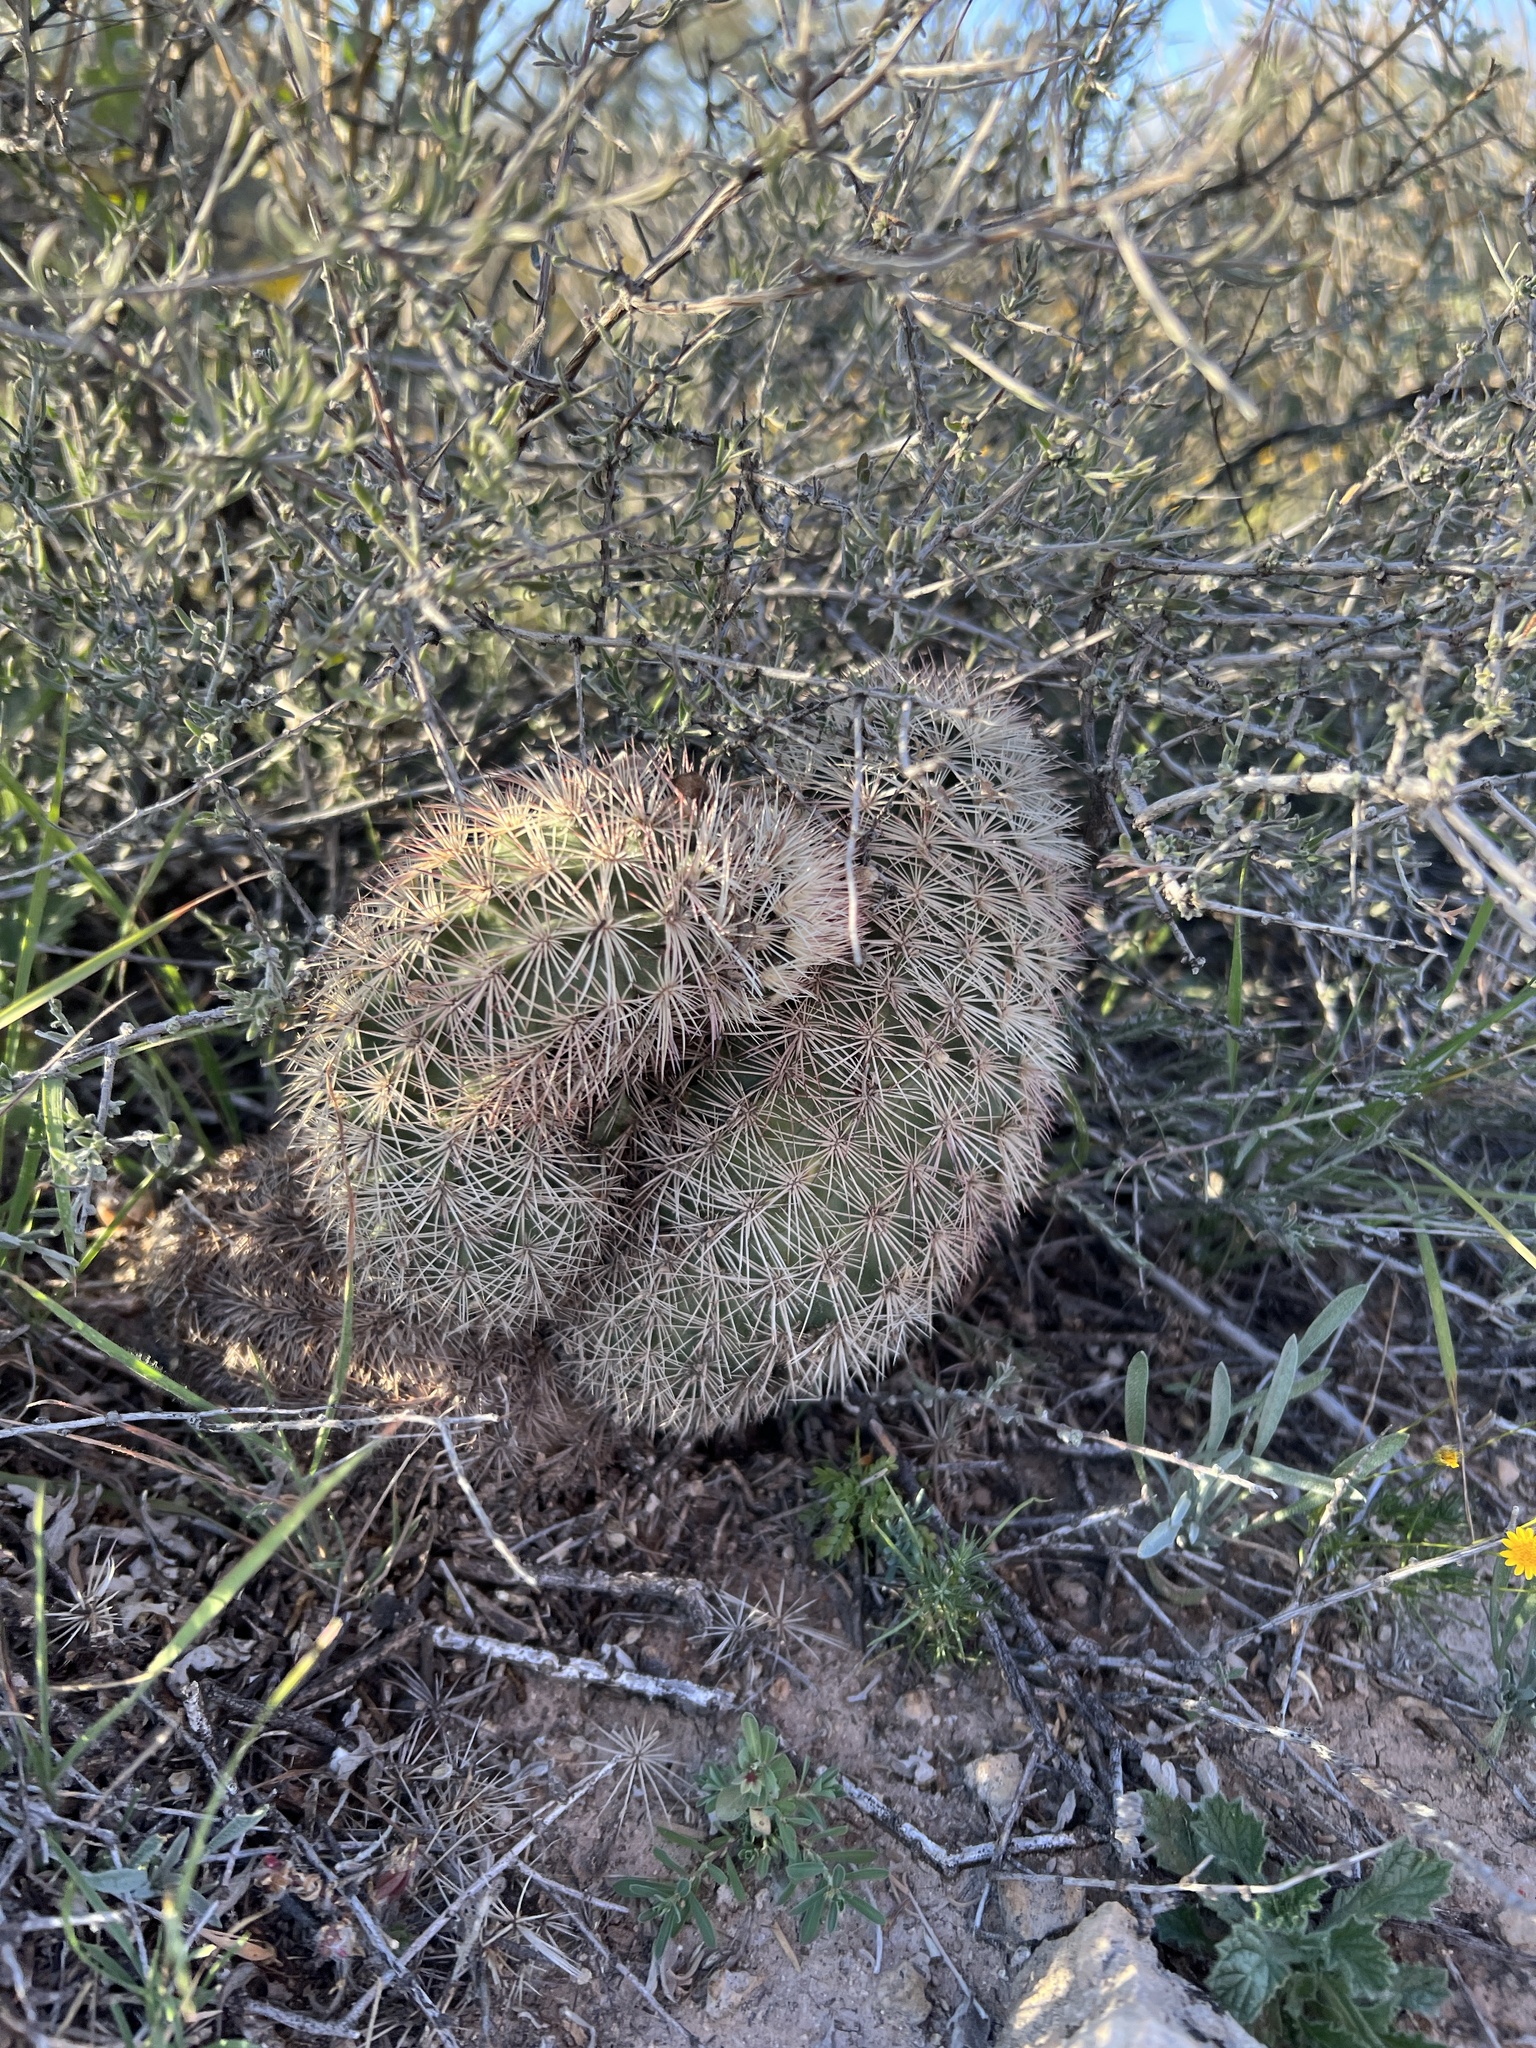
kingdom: Plantae
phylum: Tracheophyta
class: Magnoliopsida
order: Caryophyllales
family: Cactaceae
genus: Echinocereus
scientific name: Echinocereus dasyacanthus
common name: Spiny hedgehog cactus
